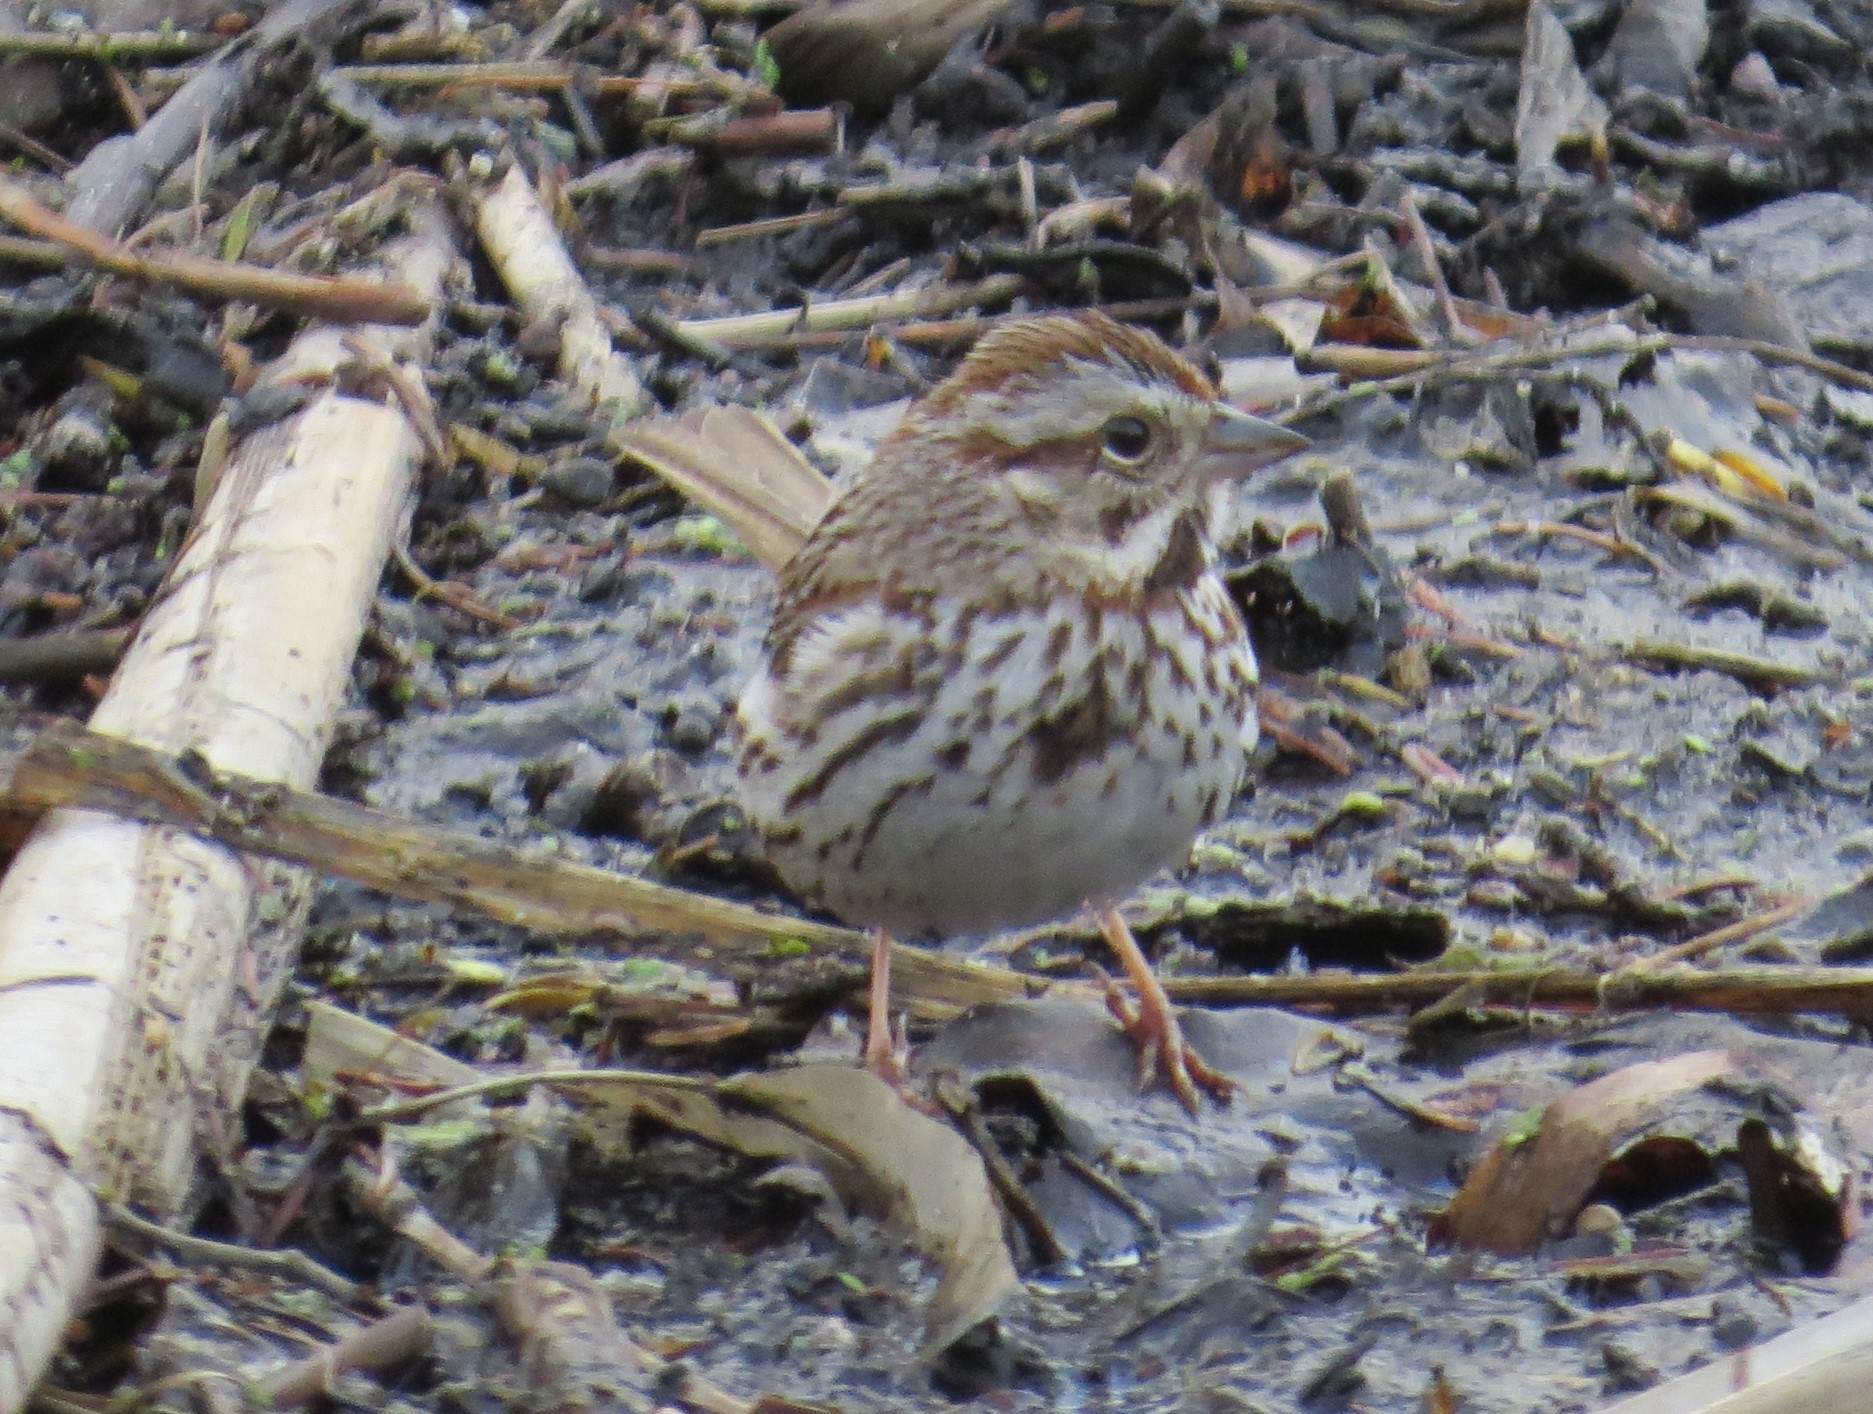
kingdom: Animalia
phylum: Chordata
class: Aves
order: Passeriformes
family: Passerellidae
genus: Melospiza
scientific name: Melospiza melodia
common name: Song sparrow
